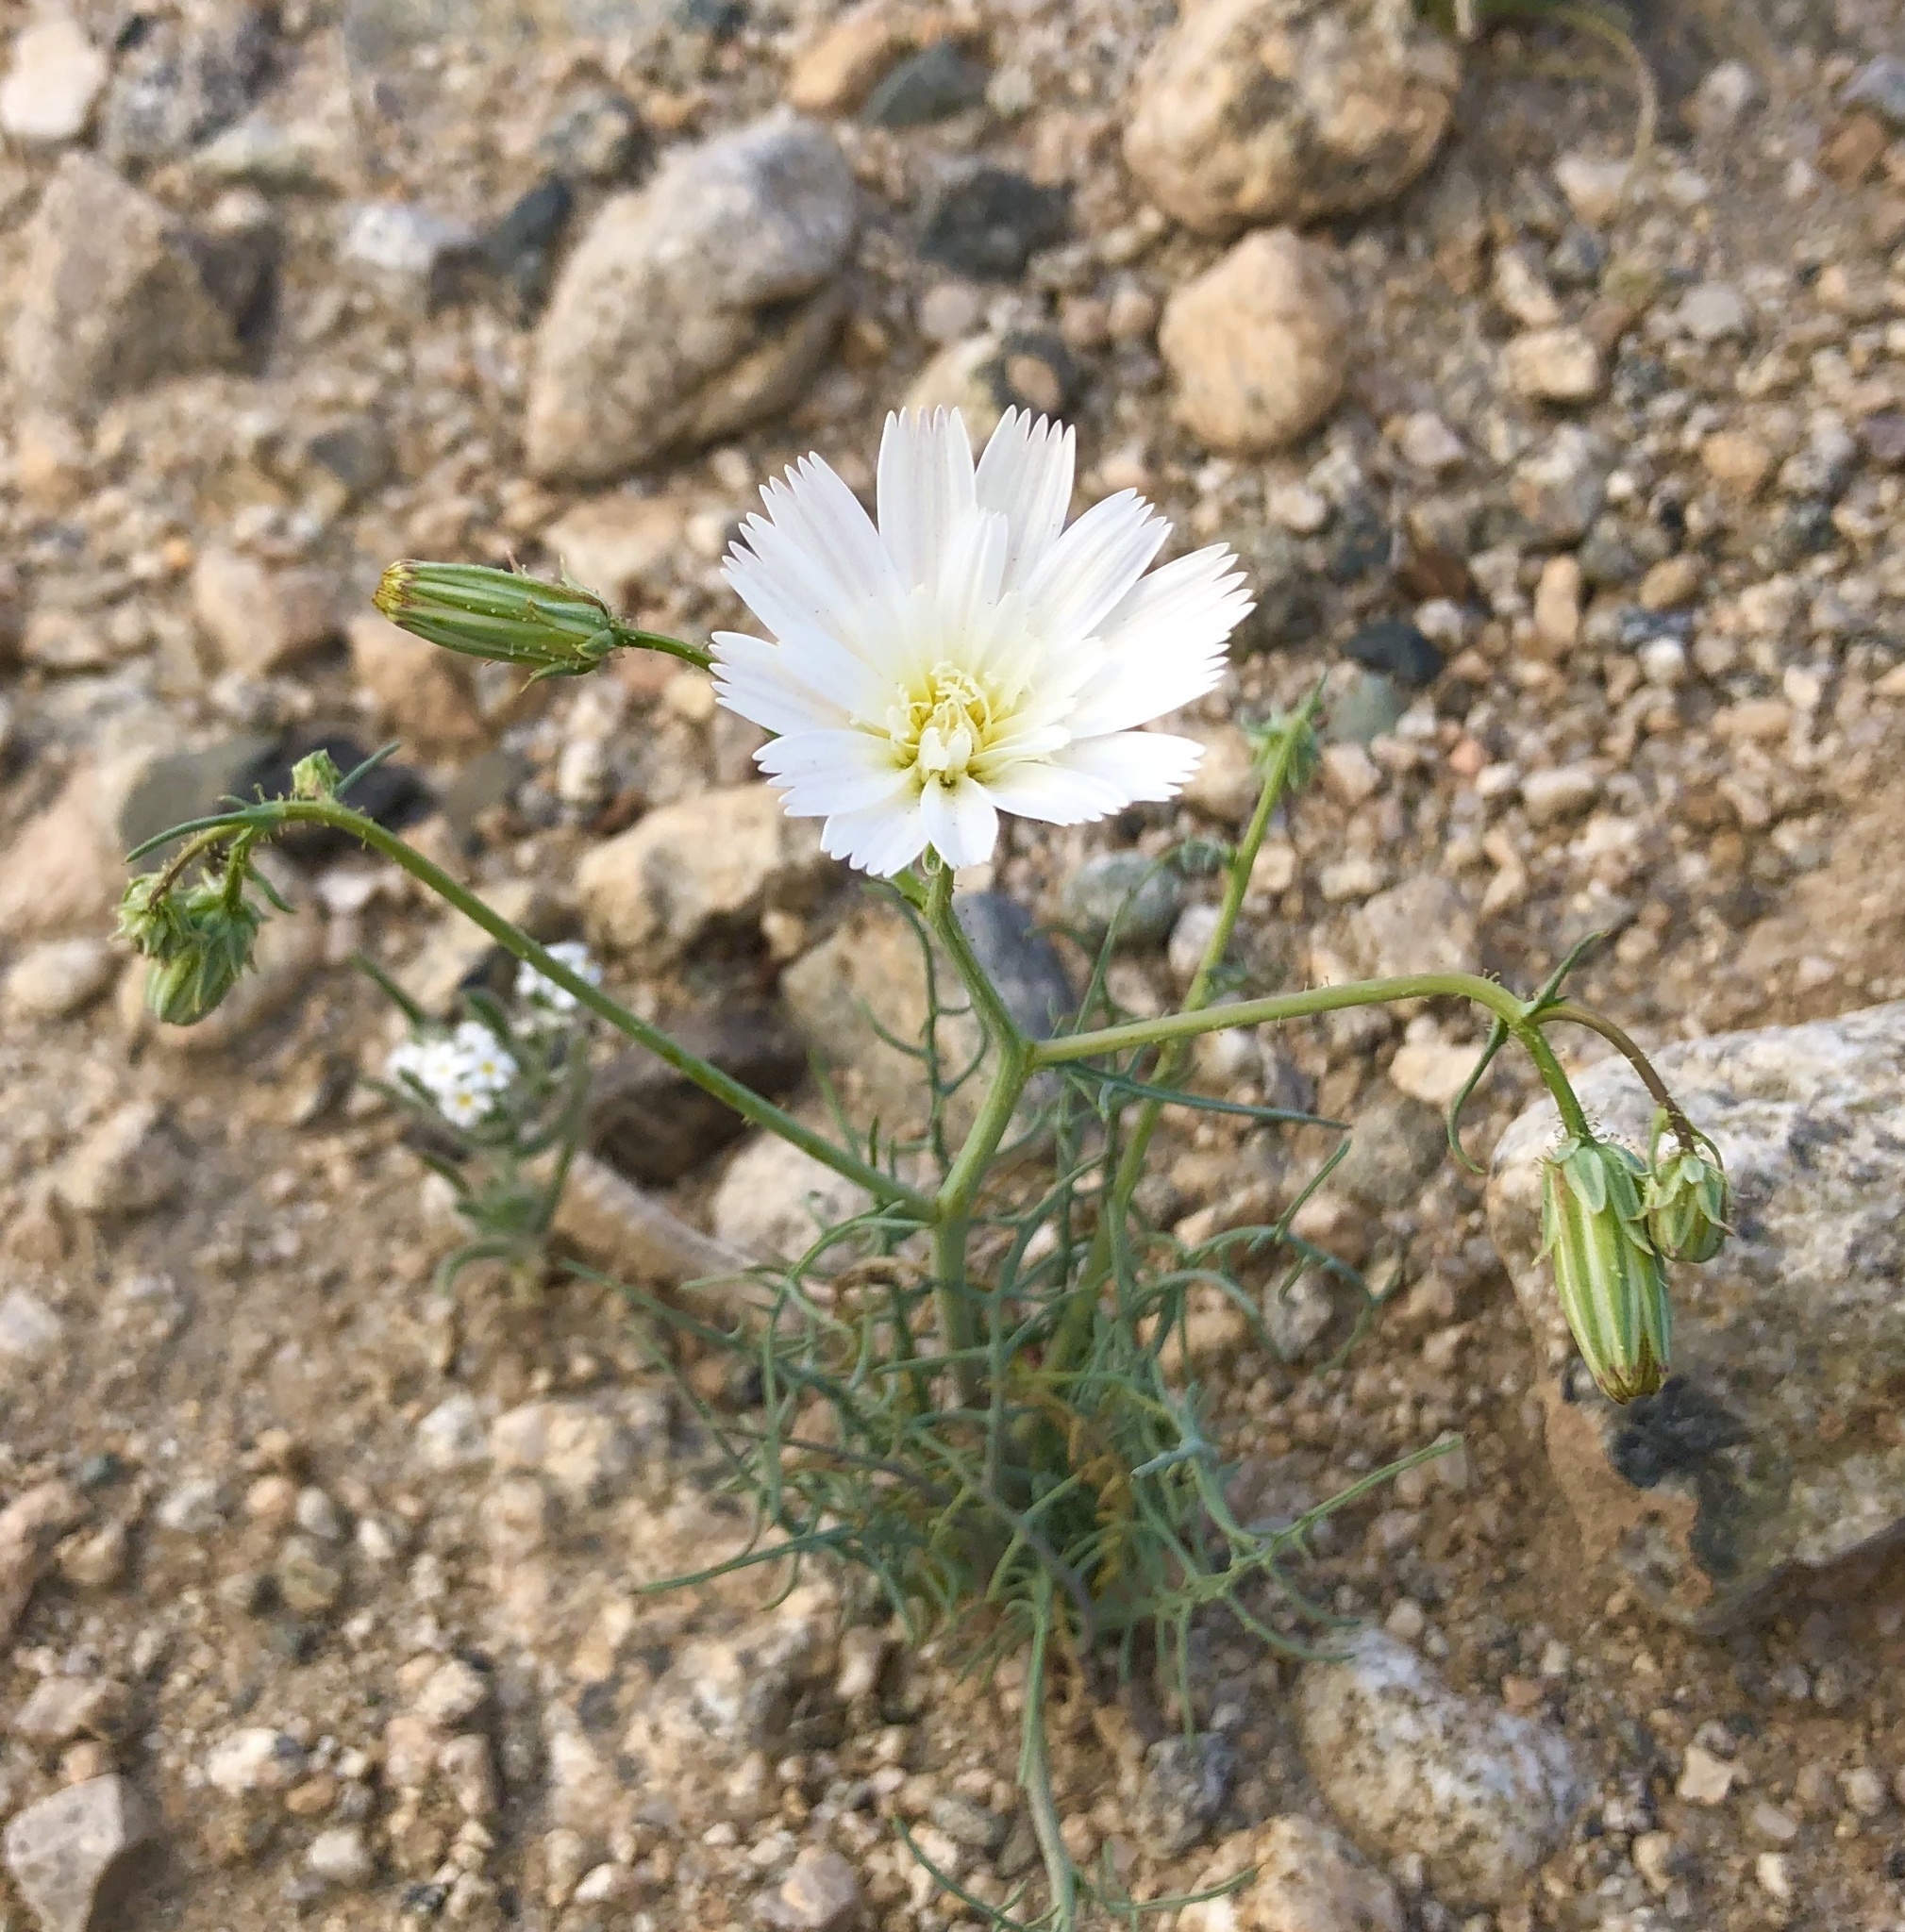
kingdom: Plantae
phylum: Tracheophyta
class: Magnoliopsida
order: Asterales
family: Asteraceae
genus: Calycoseris
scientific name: Calycoseris wrightii
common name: White tackstem
